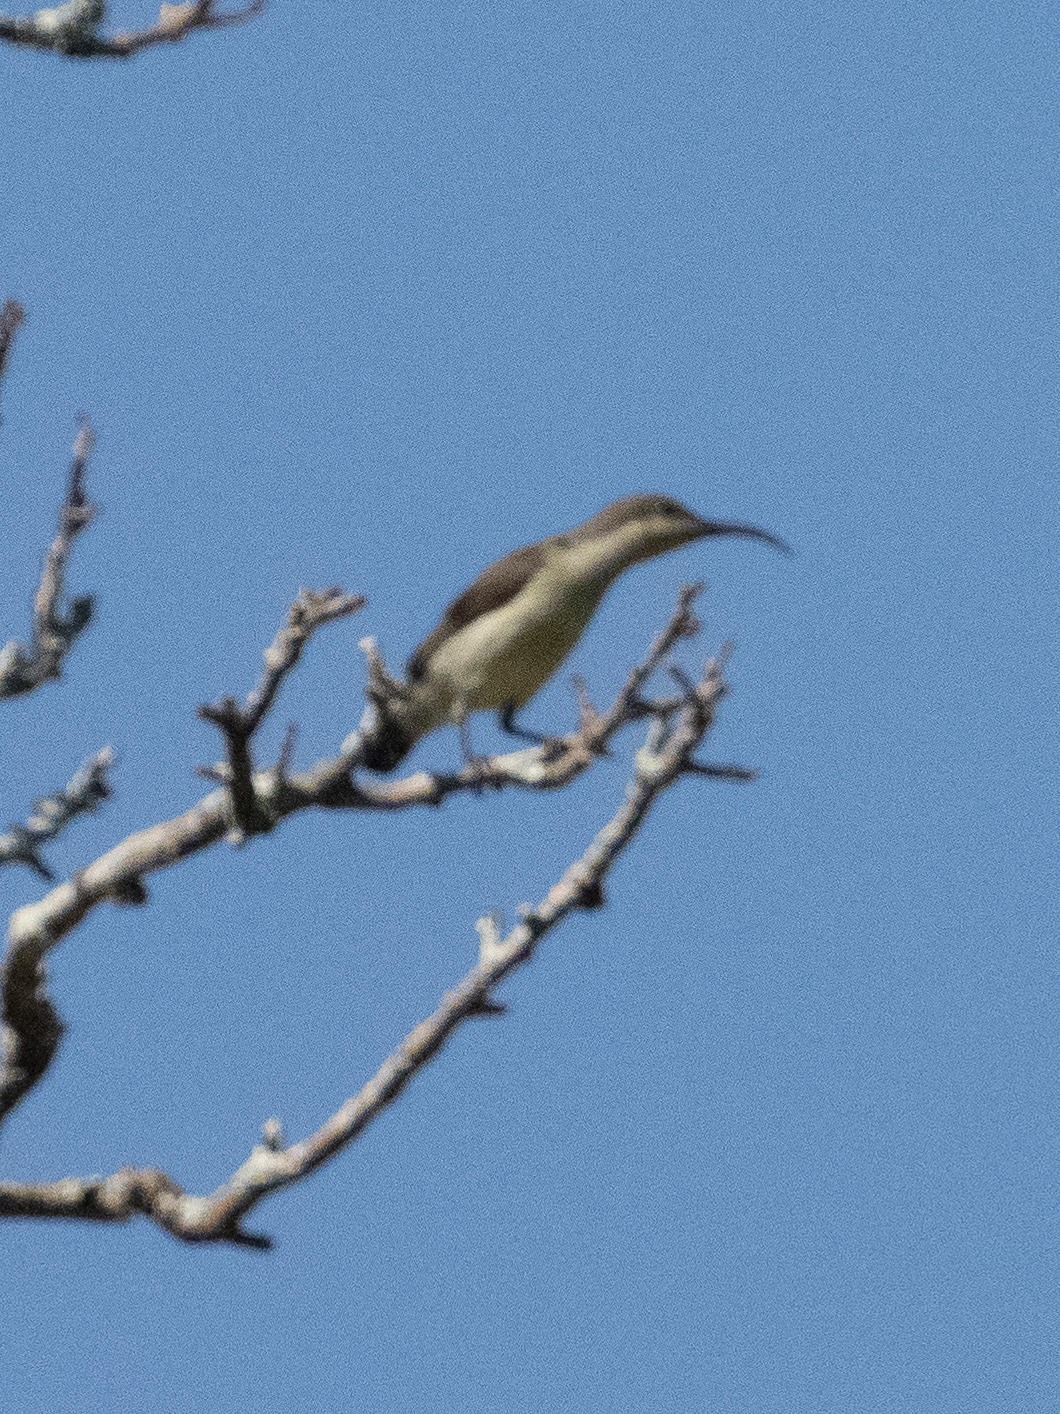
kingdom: Animalia
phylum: Chordata
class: Aves
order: Passeriformes
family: Nectariniidae
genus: Cinnyris
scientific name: Cinnyris lotenius
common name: Loten's sunbird
